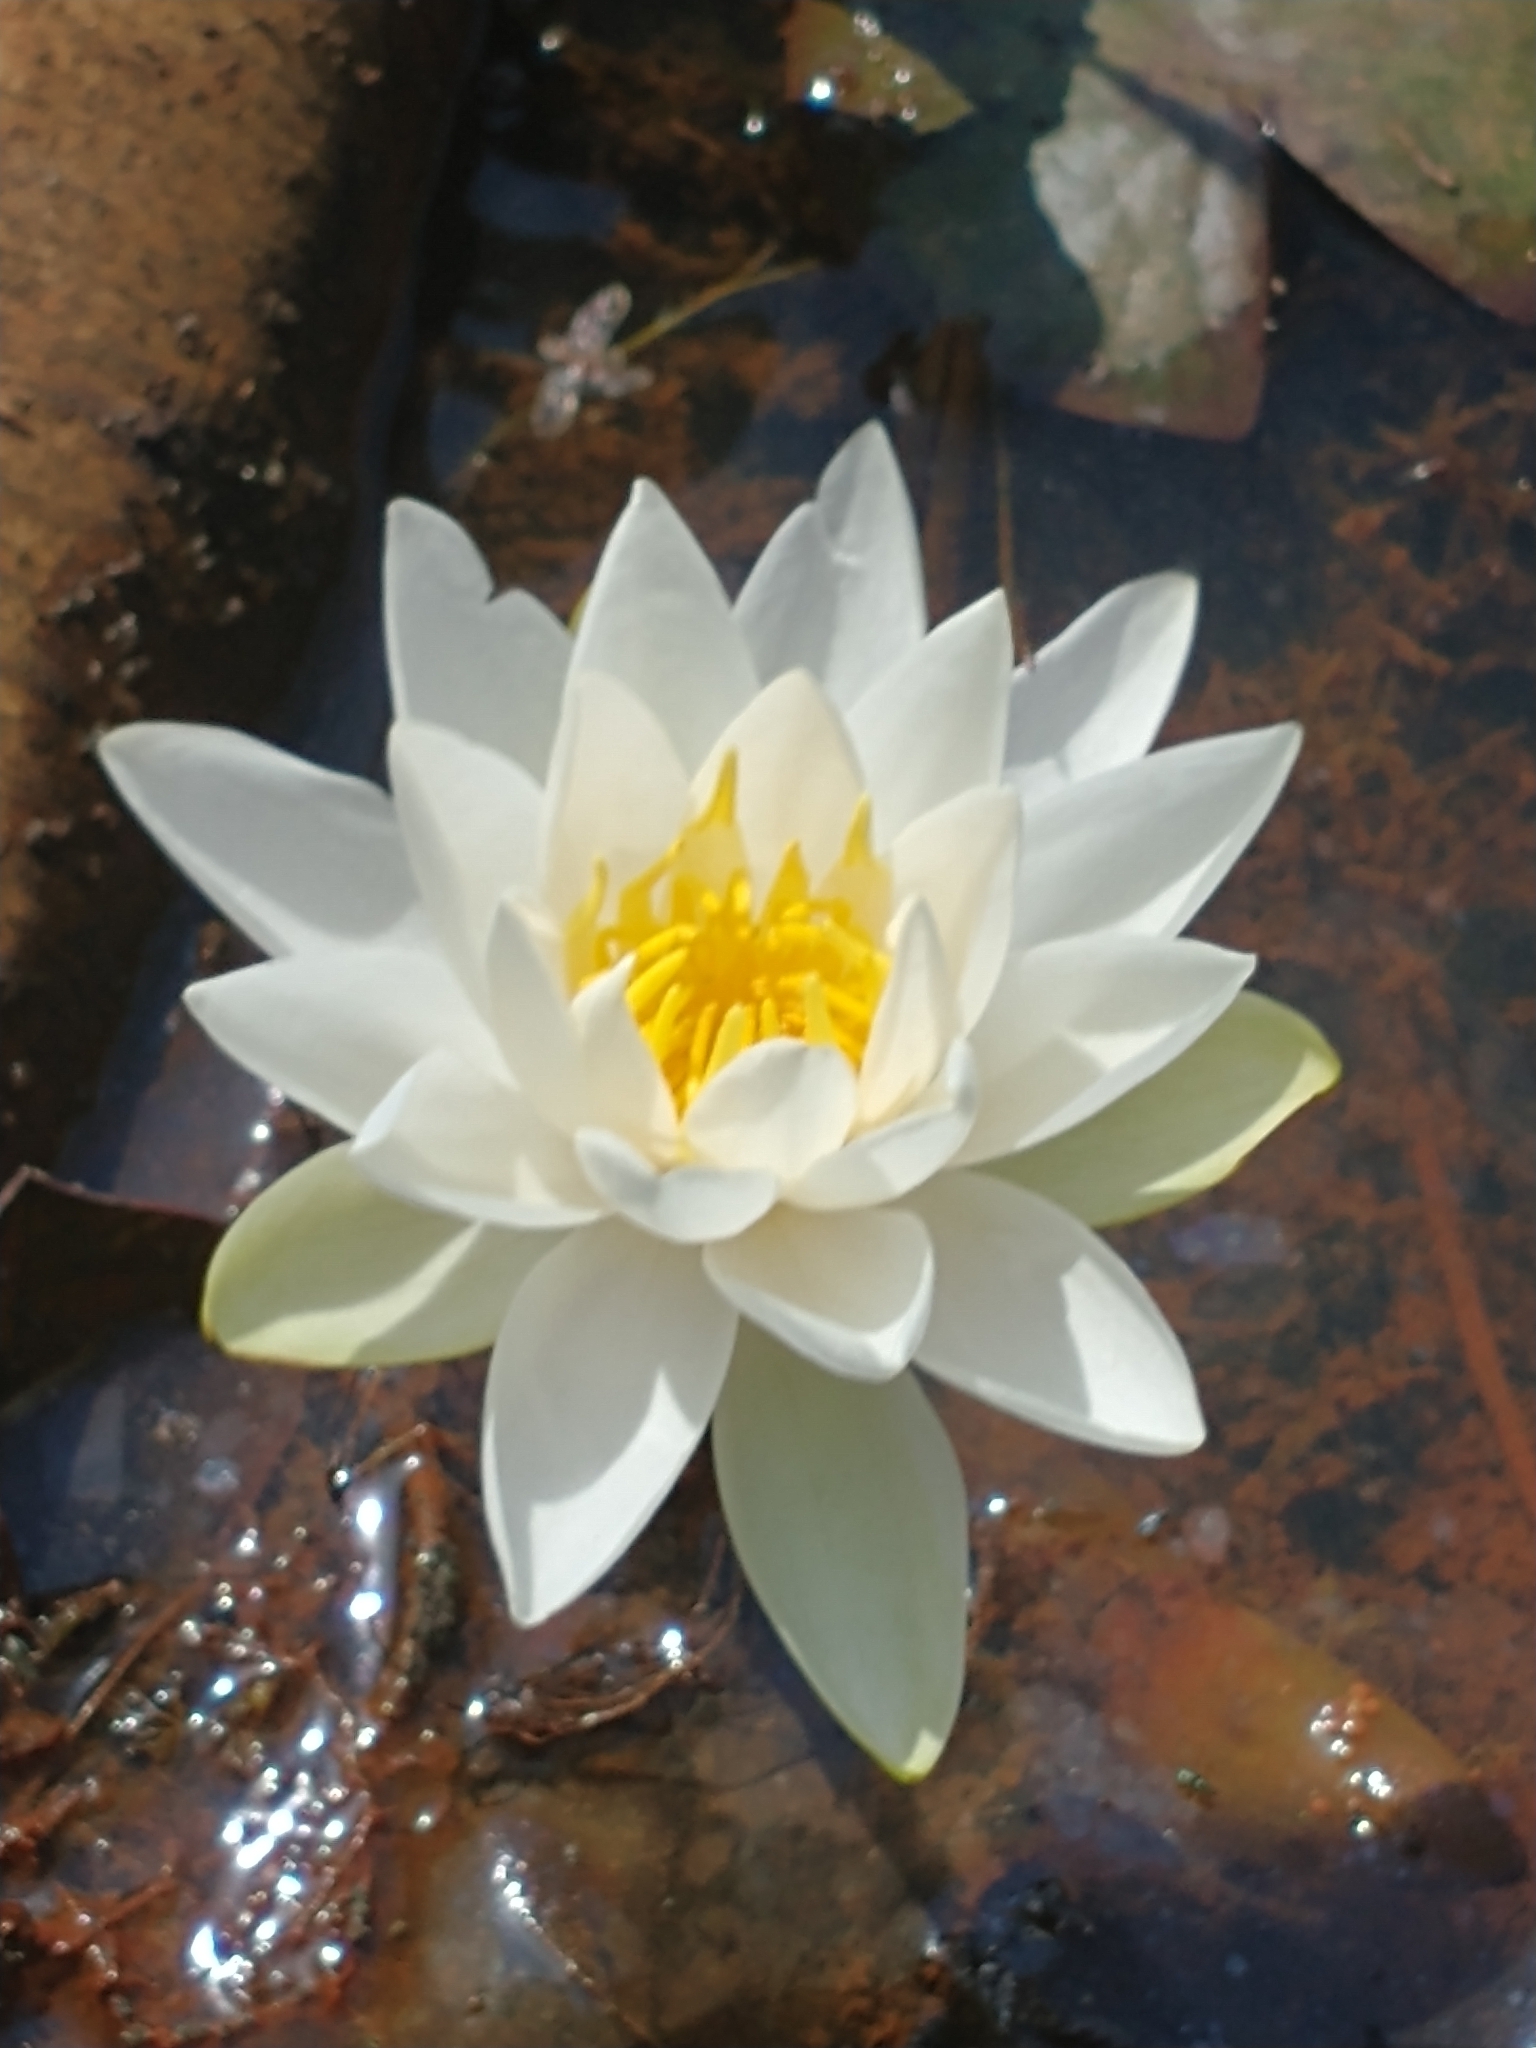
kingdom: Plantae
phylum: Tracheophyta
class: Magnoliopsida
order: Nymphaeales
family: Nymphaeaceae
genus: Nymphaea
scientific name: Nymphaea odorata
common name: Fragrant water-lily
